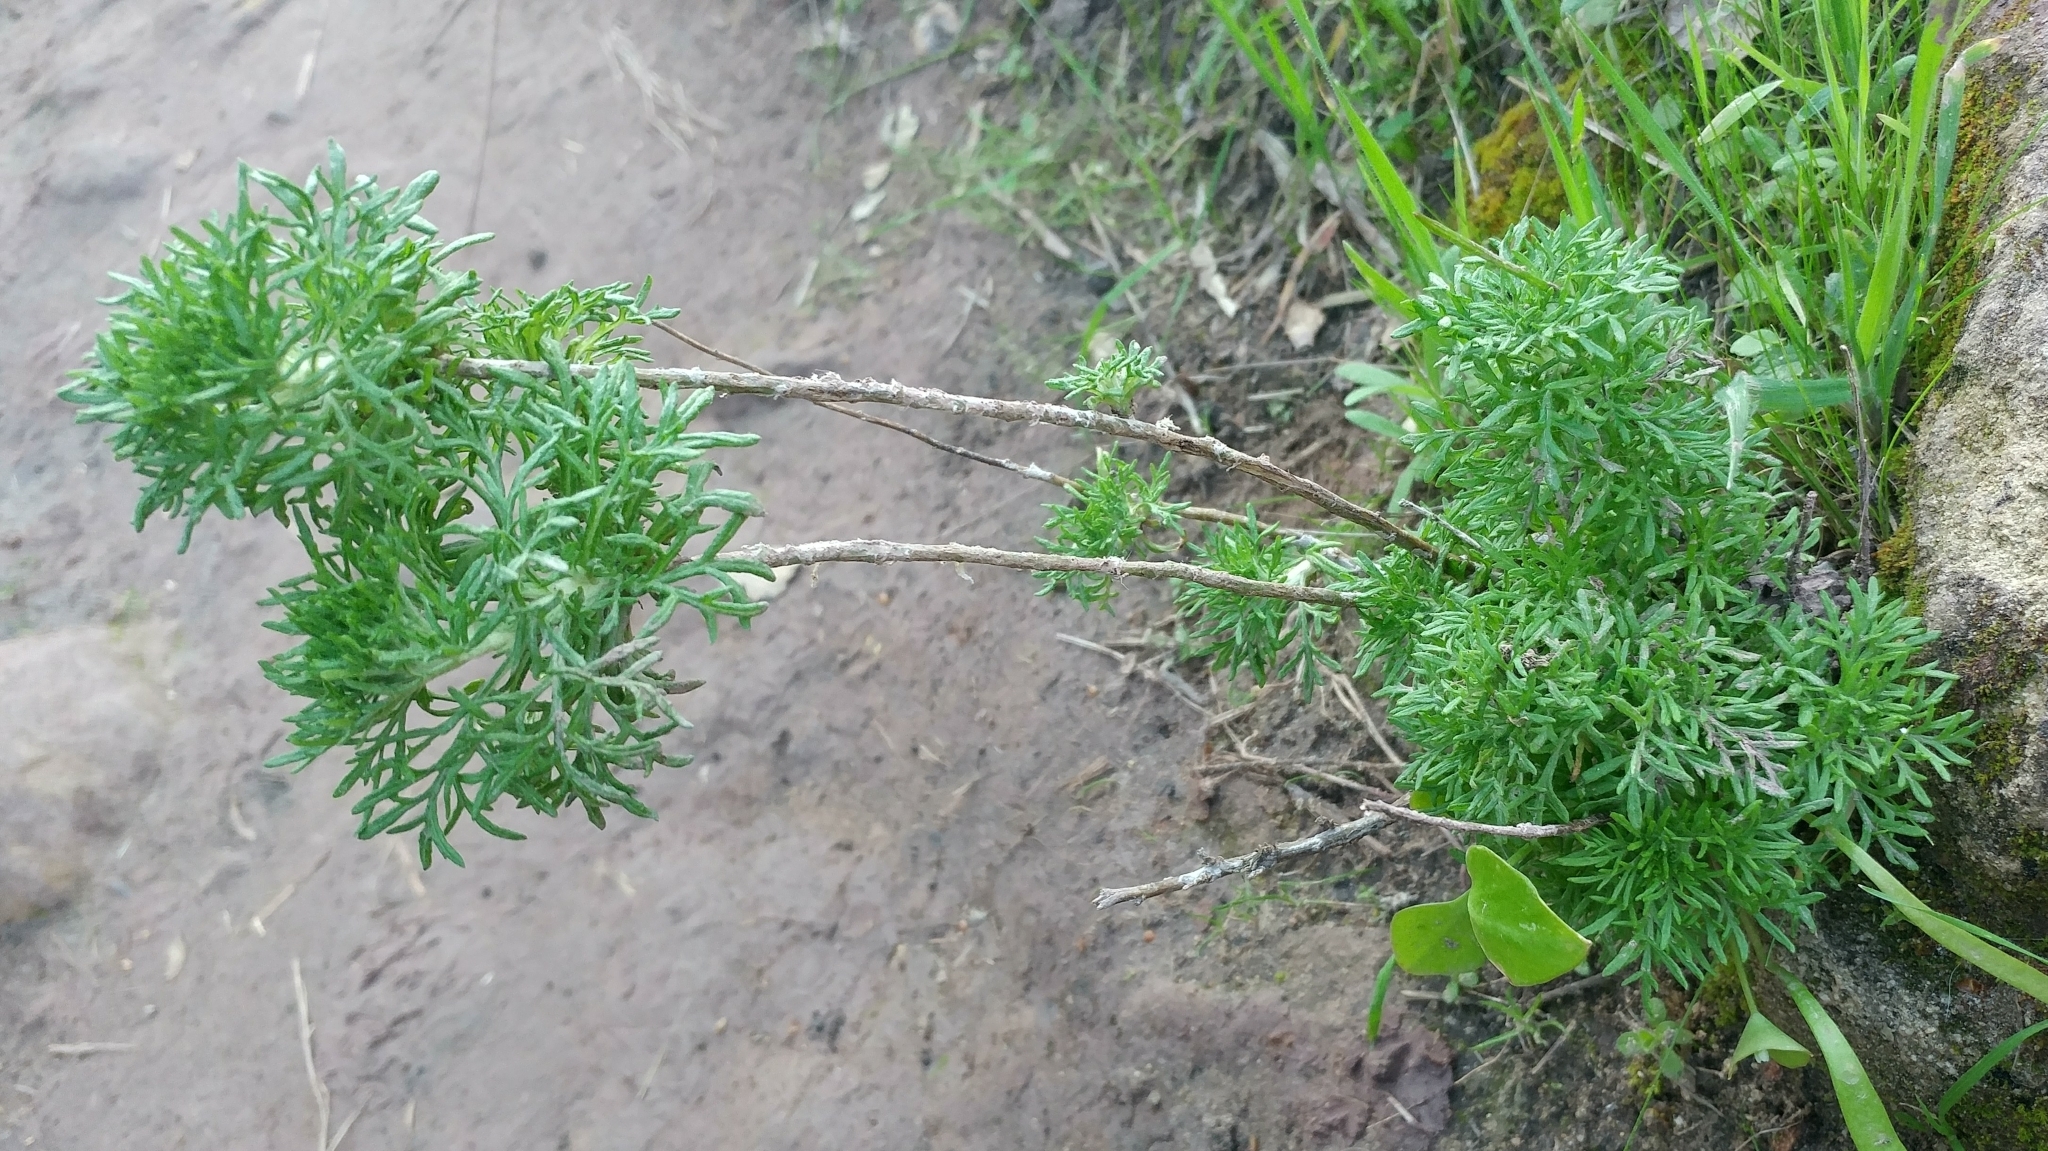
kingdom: Plantae
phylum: Tracheophyta
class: Magnoliopsida
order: Asterales
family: Asteraceae
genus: Eriophyllum
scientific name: Eriophyllum confertiflorum
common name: Golden-yarrow
